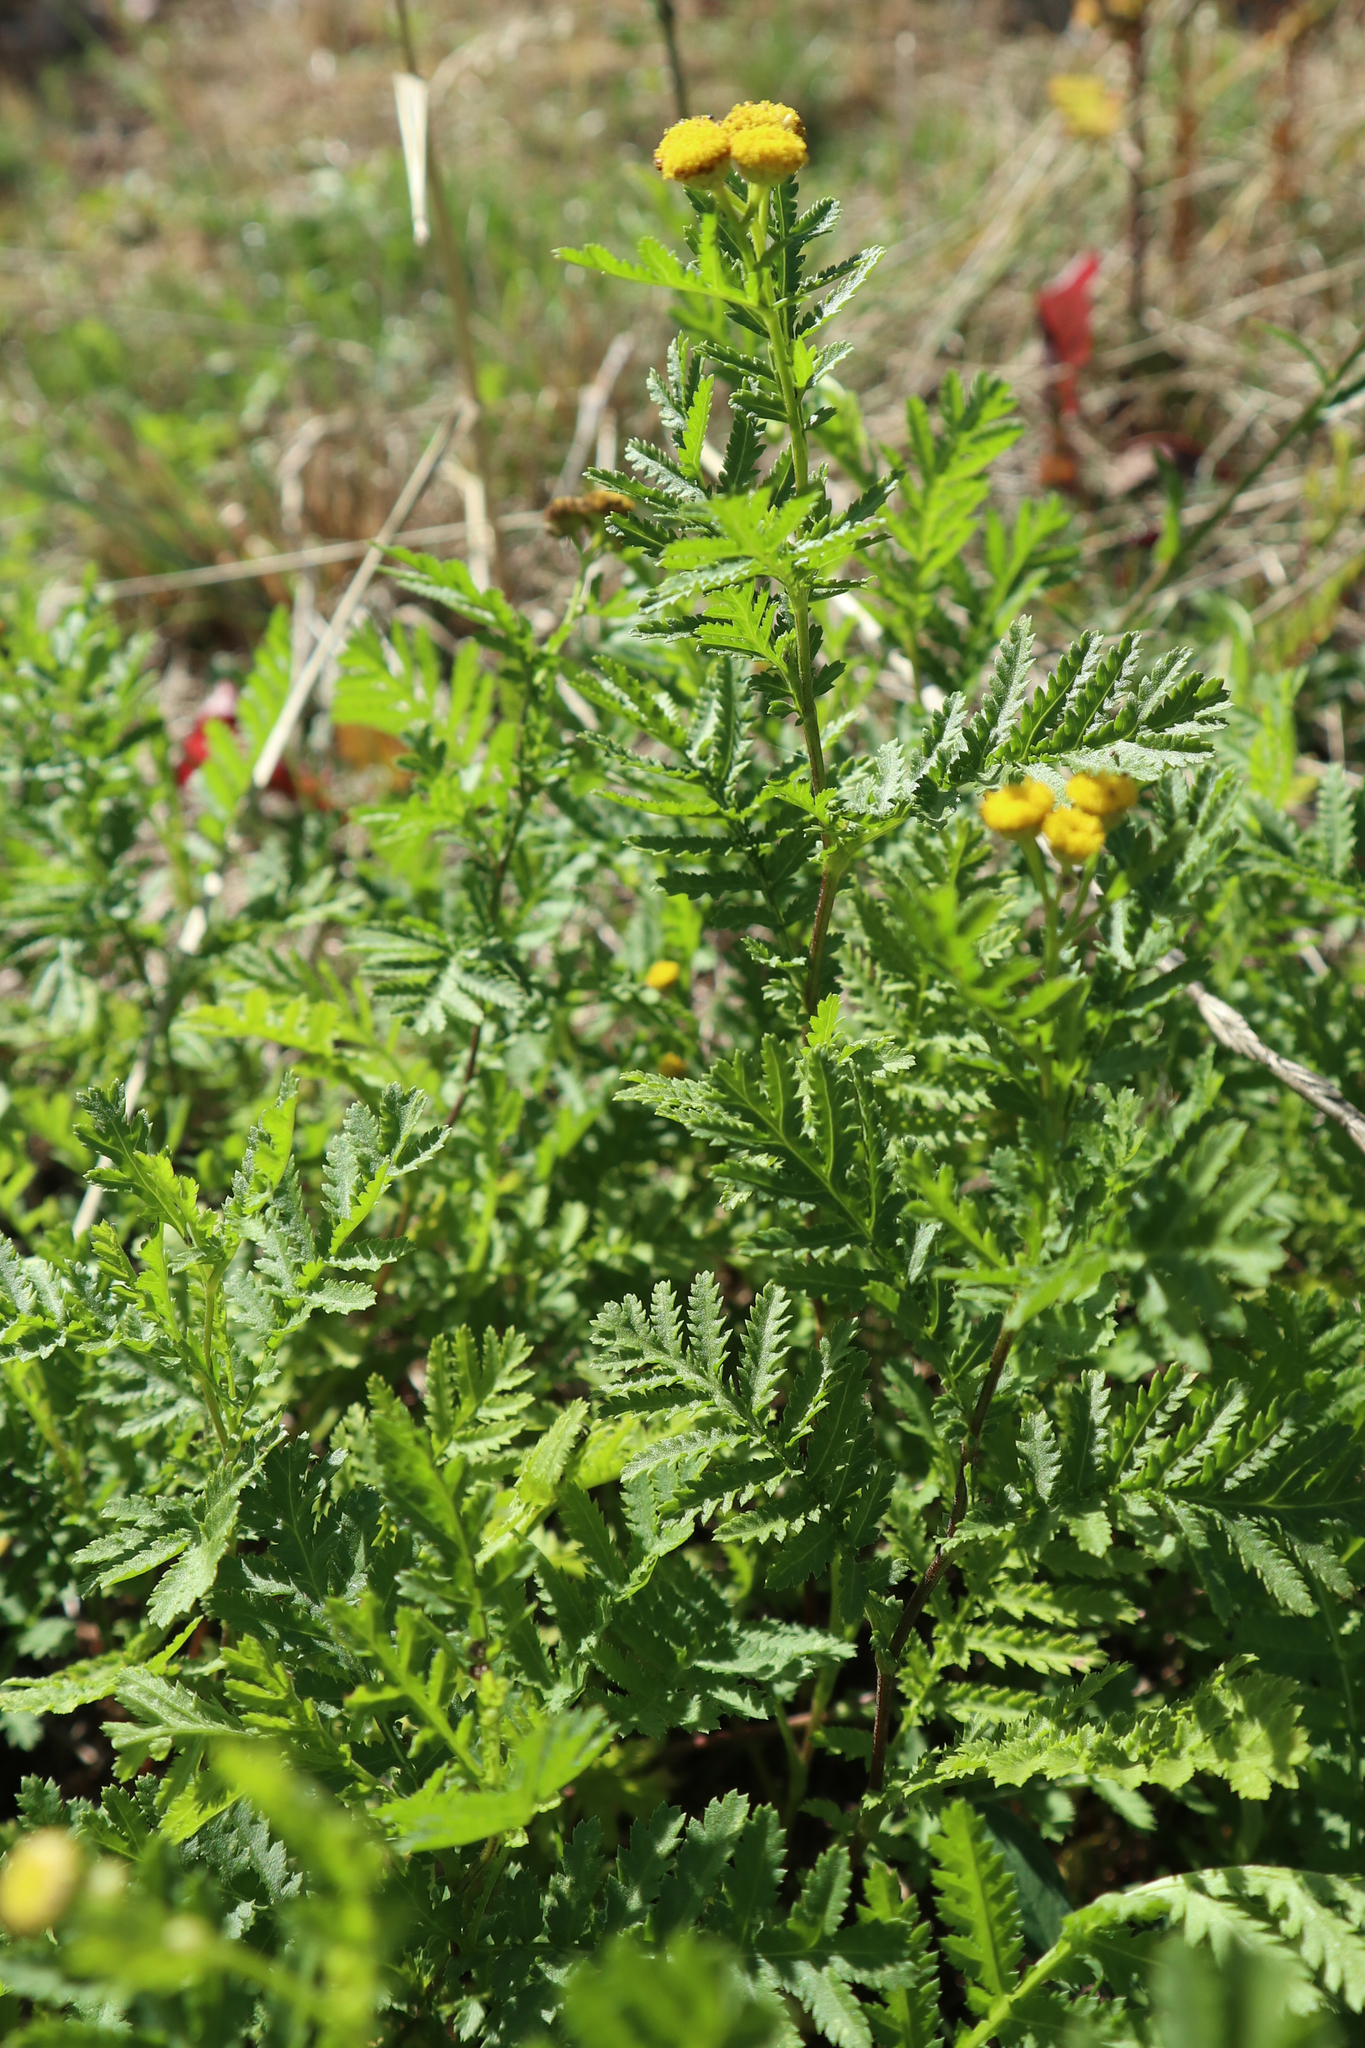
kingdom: Plantae
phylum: Tracheophyta
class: Magnoliopsida
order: Asterales
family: Asteraceae
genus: Tanacetum
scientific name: Tanacetum vulgare
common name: Common tansy
